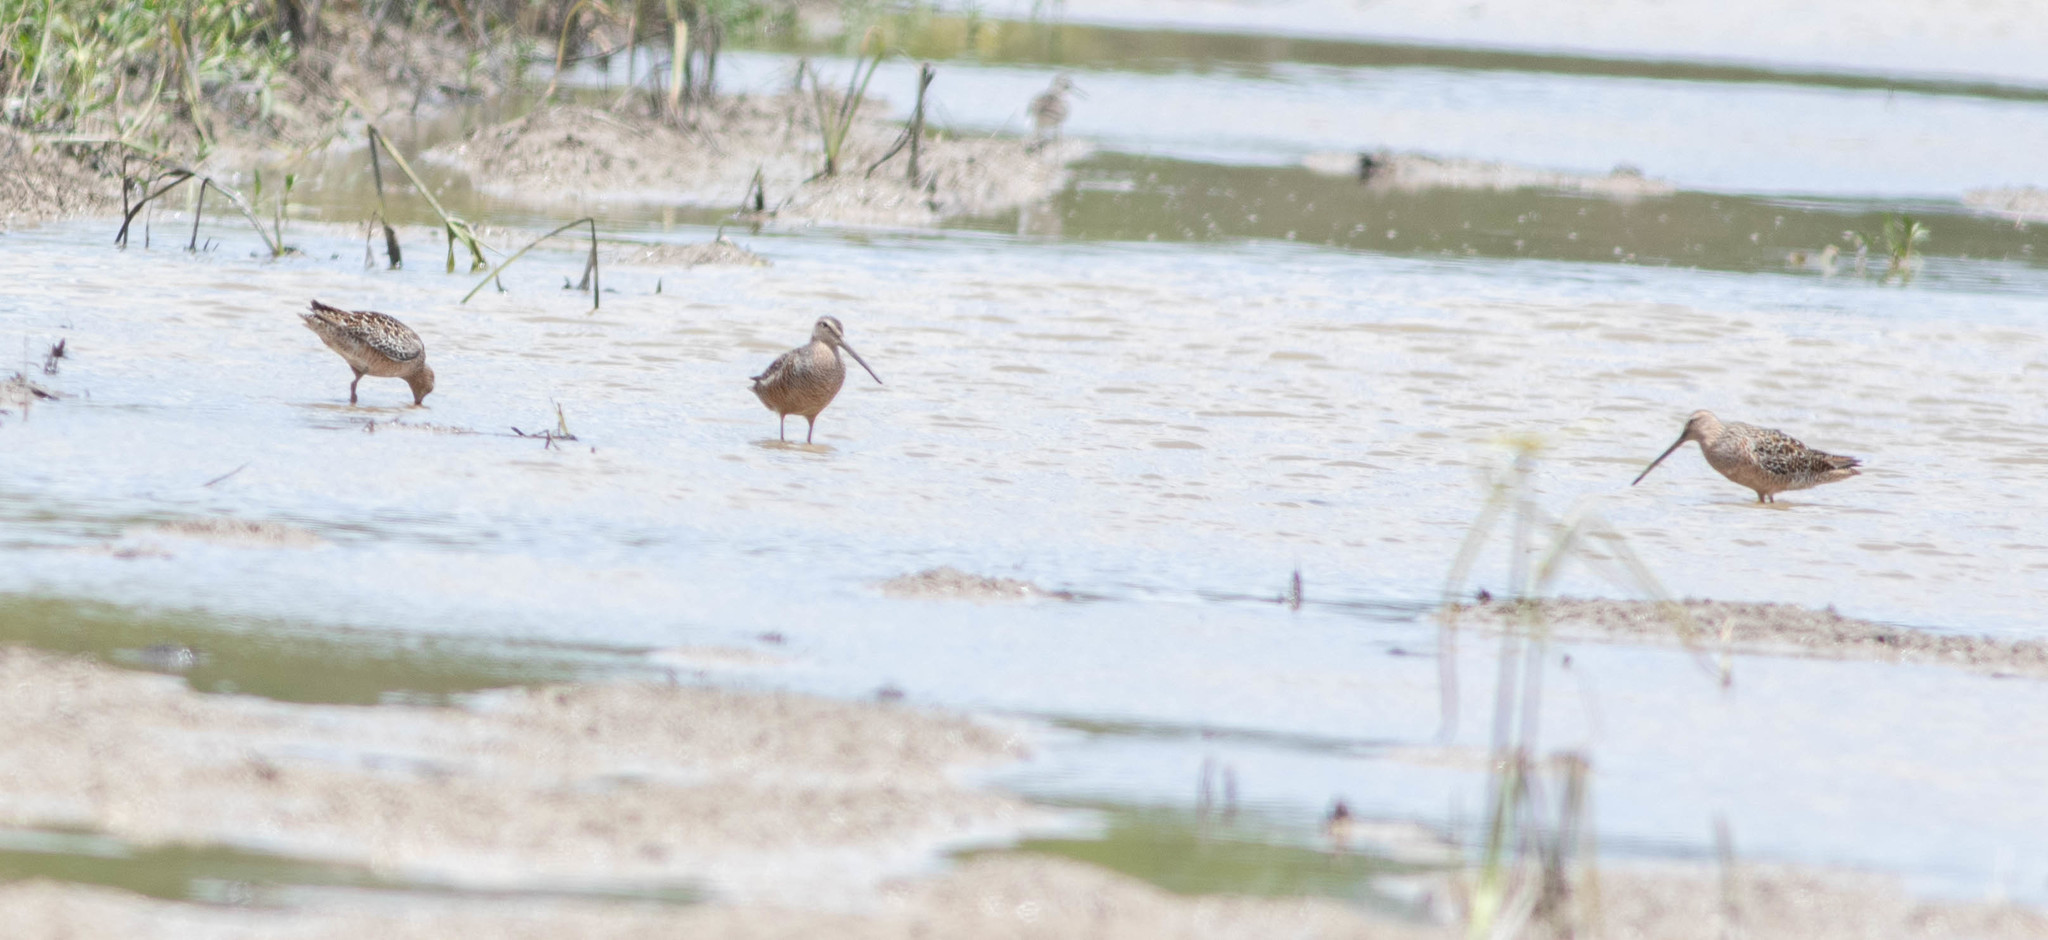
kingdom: Animalia
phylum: Chordata
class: Aves
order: Charadriiformes
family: Scolopacidae
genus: Limnodromus
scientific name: Limnodromus scolopaceus
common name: Long-billed dowitcher
